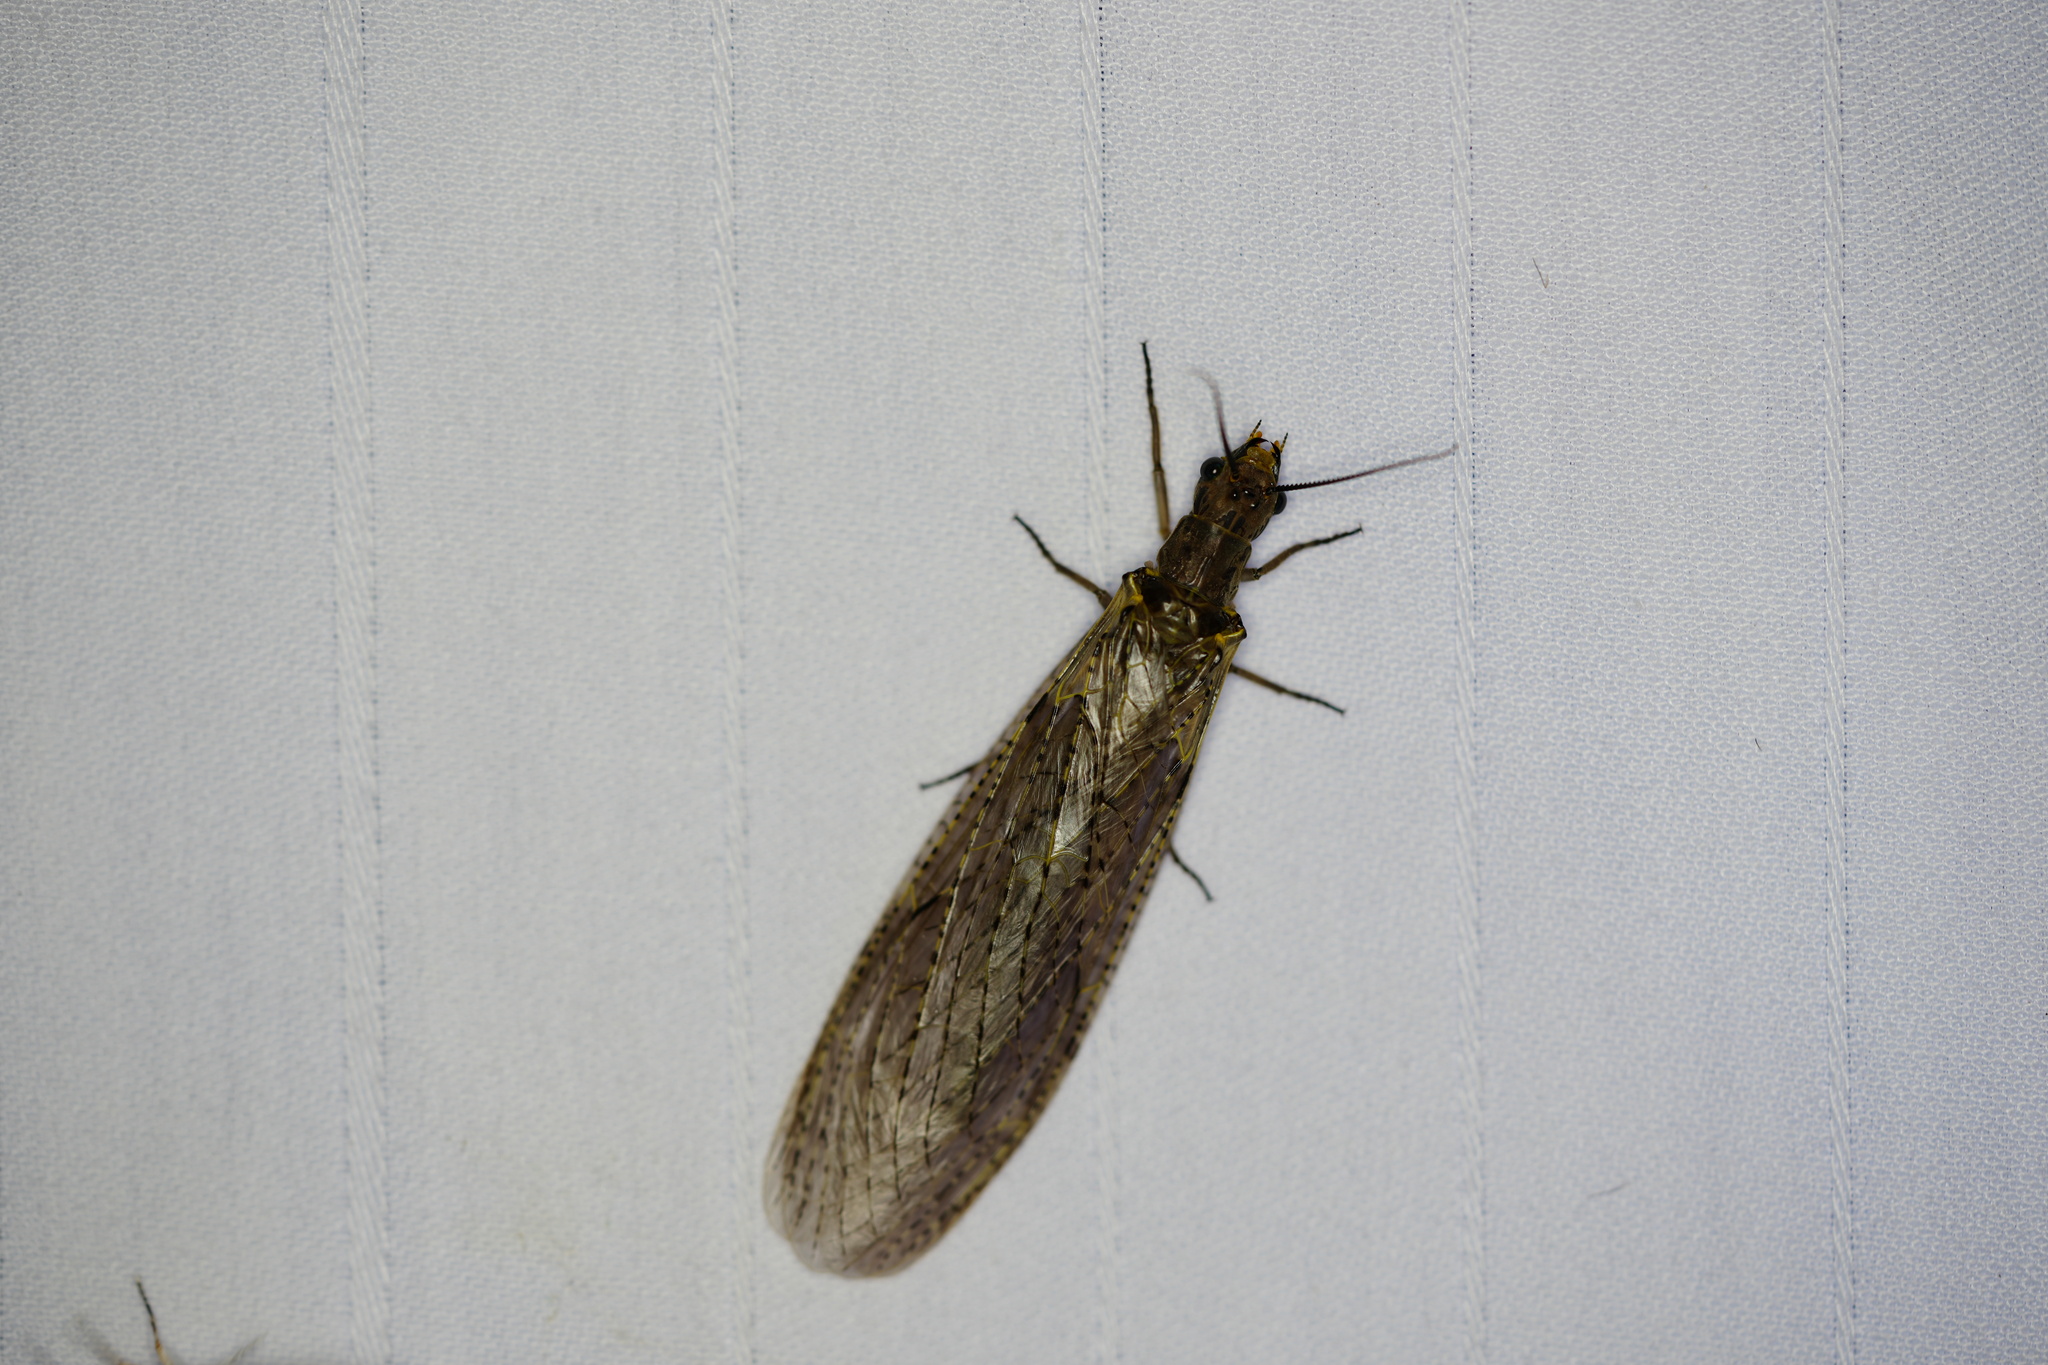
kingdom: Animalia
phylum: Arthropoda
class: Insecta
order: Megaloptera
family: Corydalidae
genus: Chauliodes
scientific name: Chauliodes rastricornis
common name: Spring fishfly
